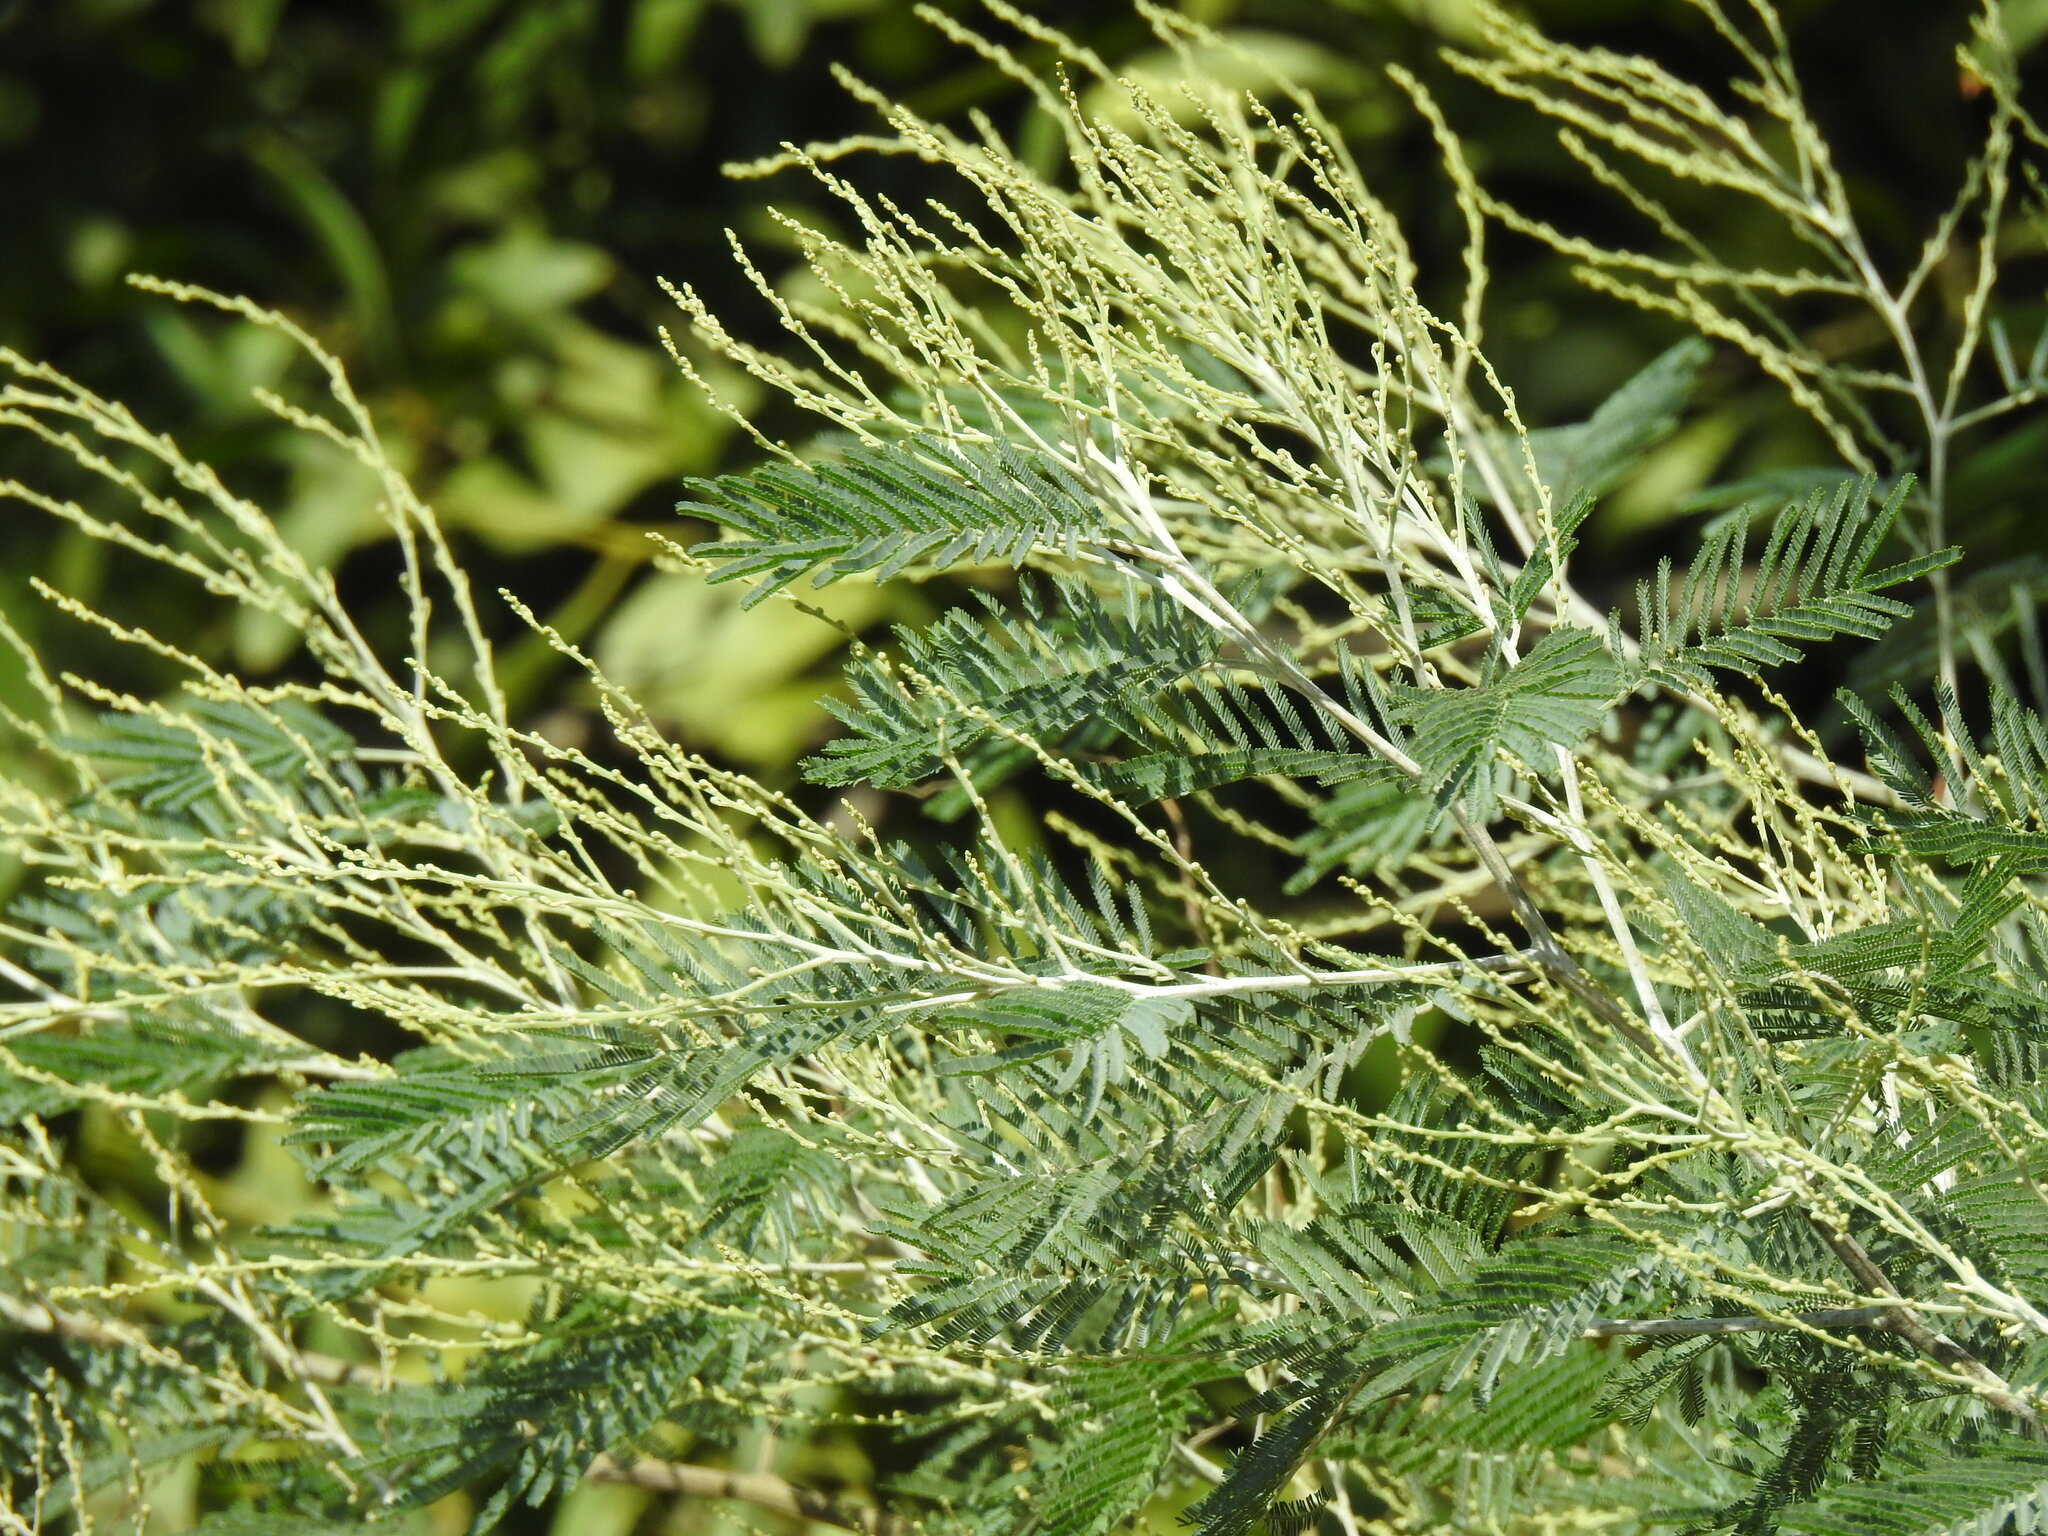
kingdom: Plantae
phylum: Tracheophyta
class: Magnoliopsida
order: Fabales
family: Fabaceae
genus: Acacia
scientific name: Acacia dealbata
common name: Silver wattle
